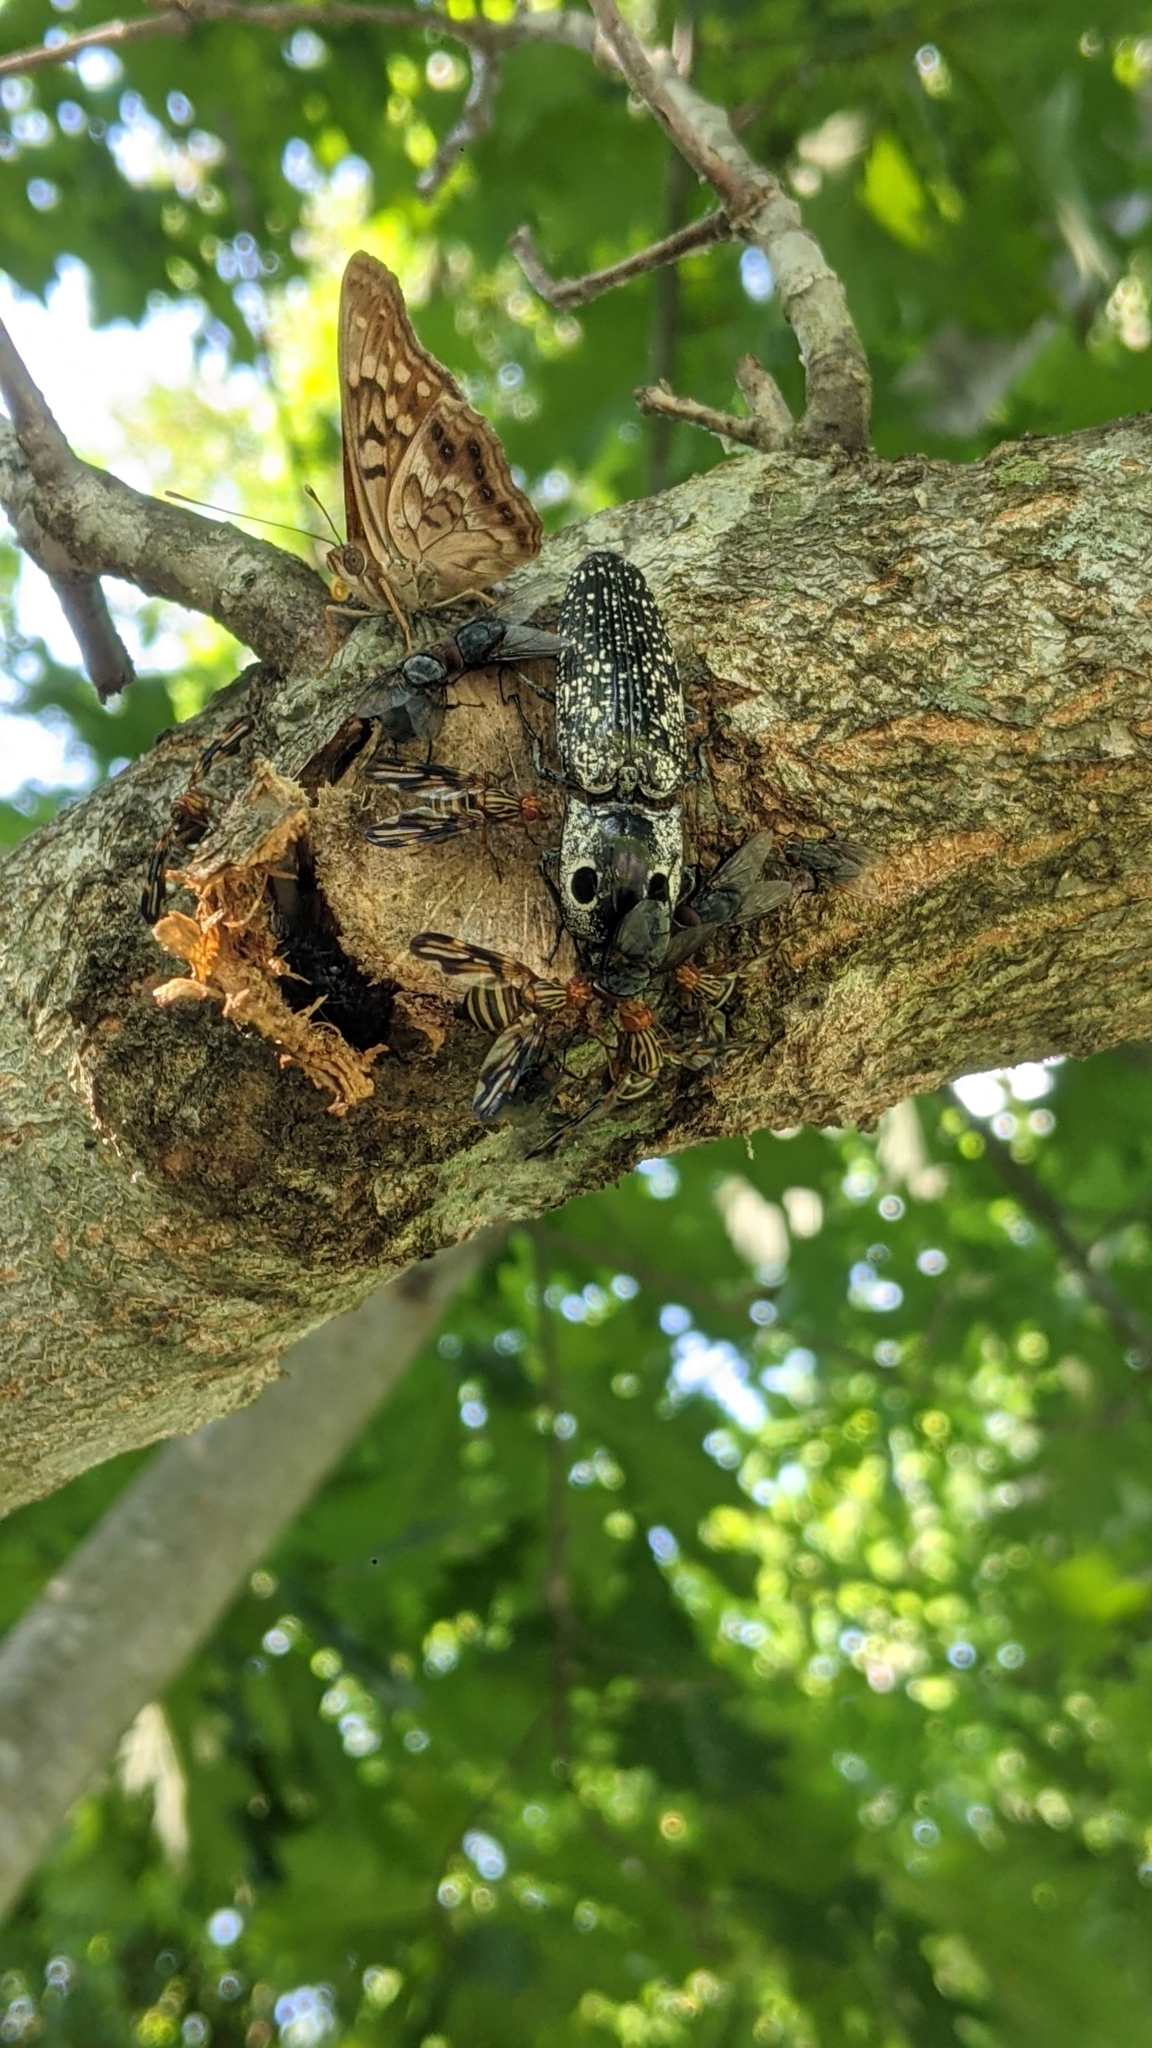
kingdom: Animalia
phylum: Arthropoda
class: Insecta
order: Coleoptera
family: Elateridae
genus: Alaus
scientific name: Alaus oculatus
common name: Eastern eyed click beetle
